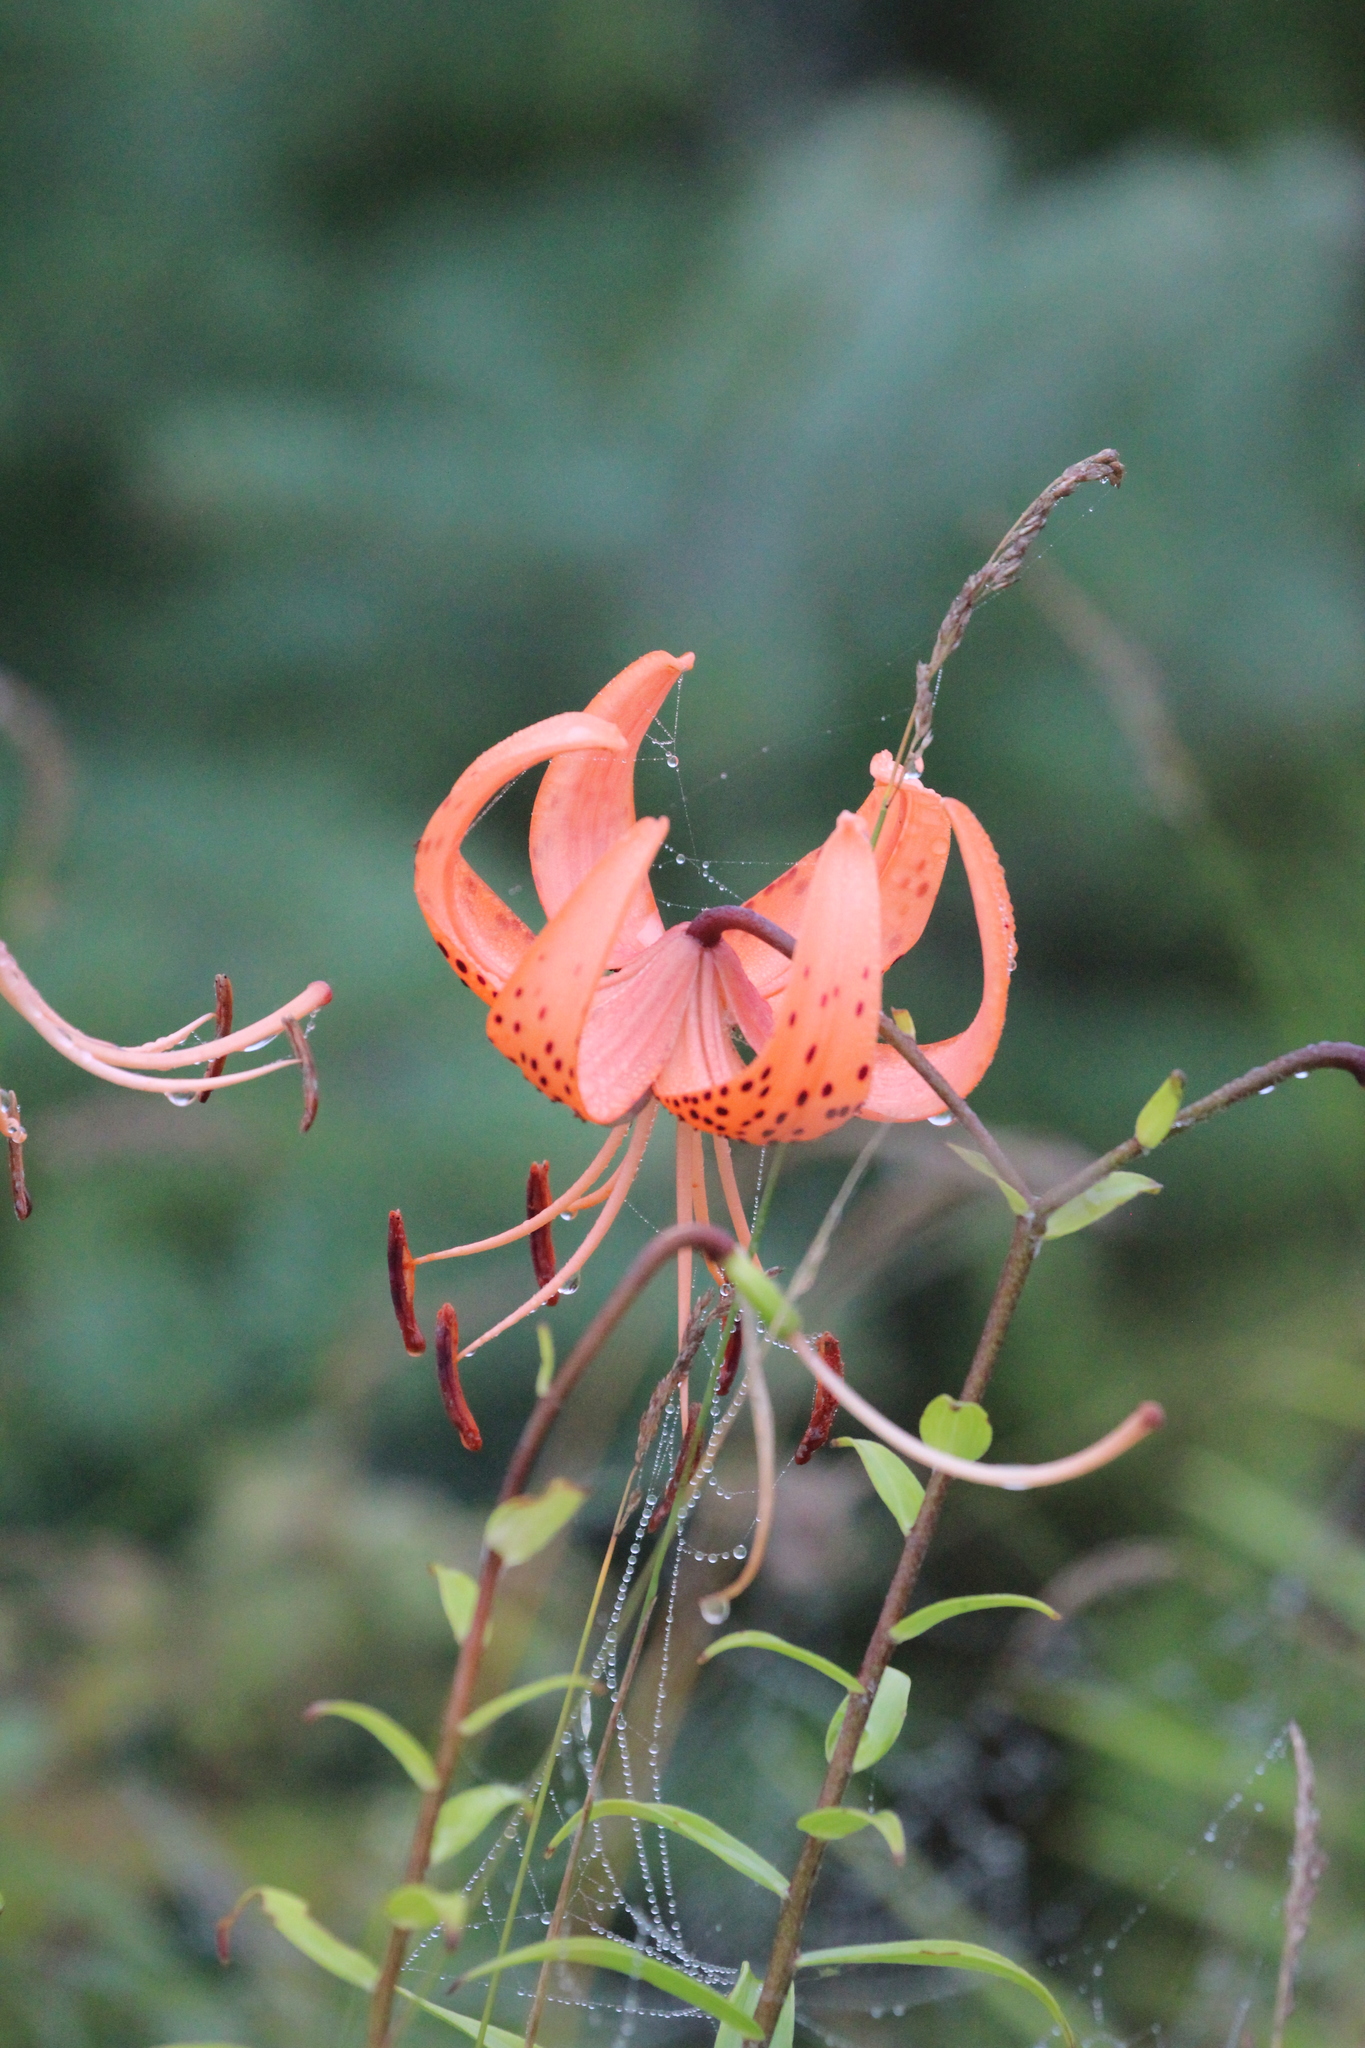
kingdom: Plantae
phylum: Tracheophyta
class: Liliopsida
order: Liliales
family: Liliaceae
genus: Lilium
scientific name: Lilium lancifolium
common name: Tiger lily
